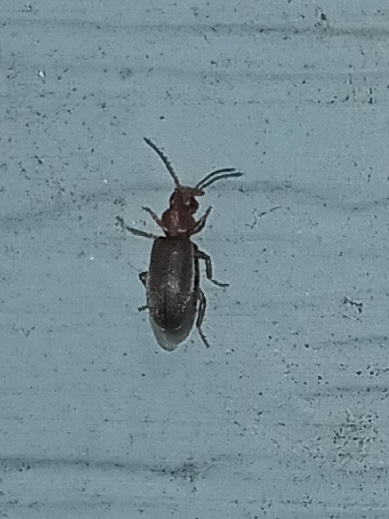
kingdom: Animalia
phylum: Arthropoda
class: Insecta
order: Coleoptera
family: Anthicidae
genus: Notoxus
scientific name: Notoxus murinipennis
